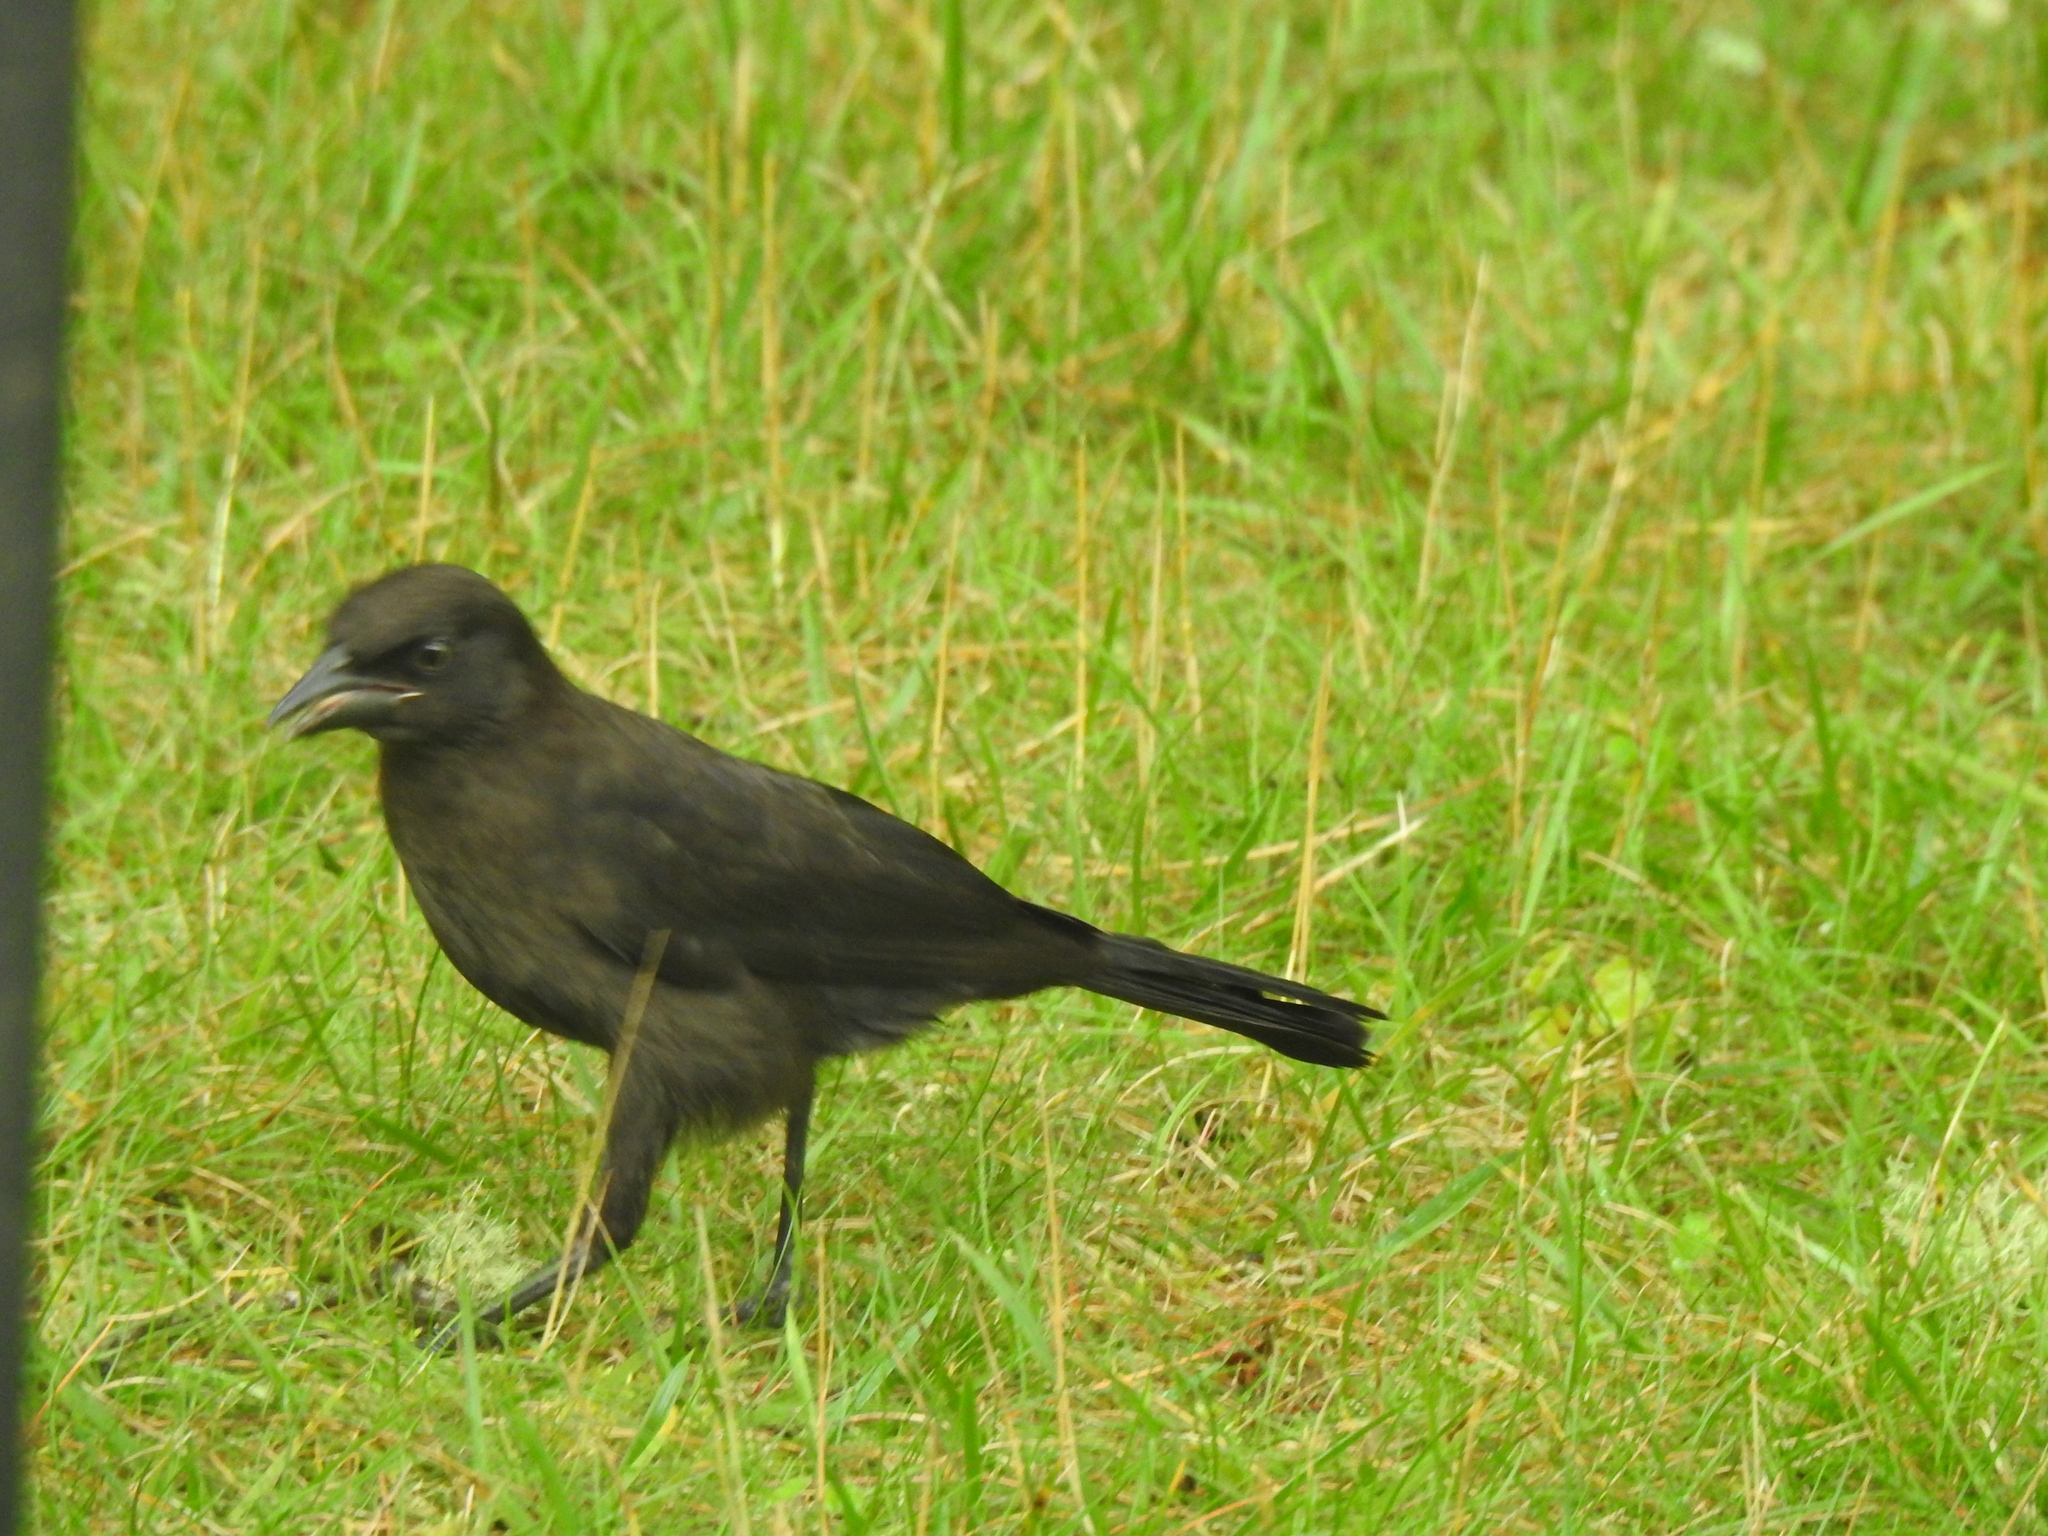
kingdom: Animalia
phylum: Chordata
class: Aves
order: Passeriformes
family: Icteridae
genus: Quiscalus
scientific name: Quiscalus quiscula
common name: Common grackle
